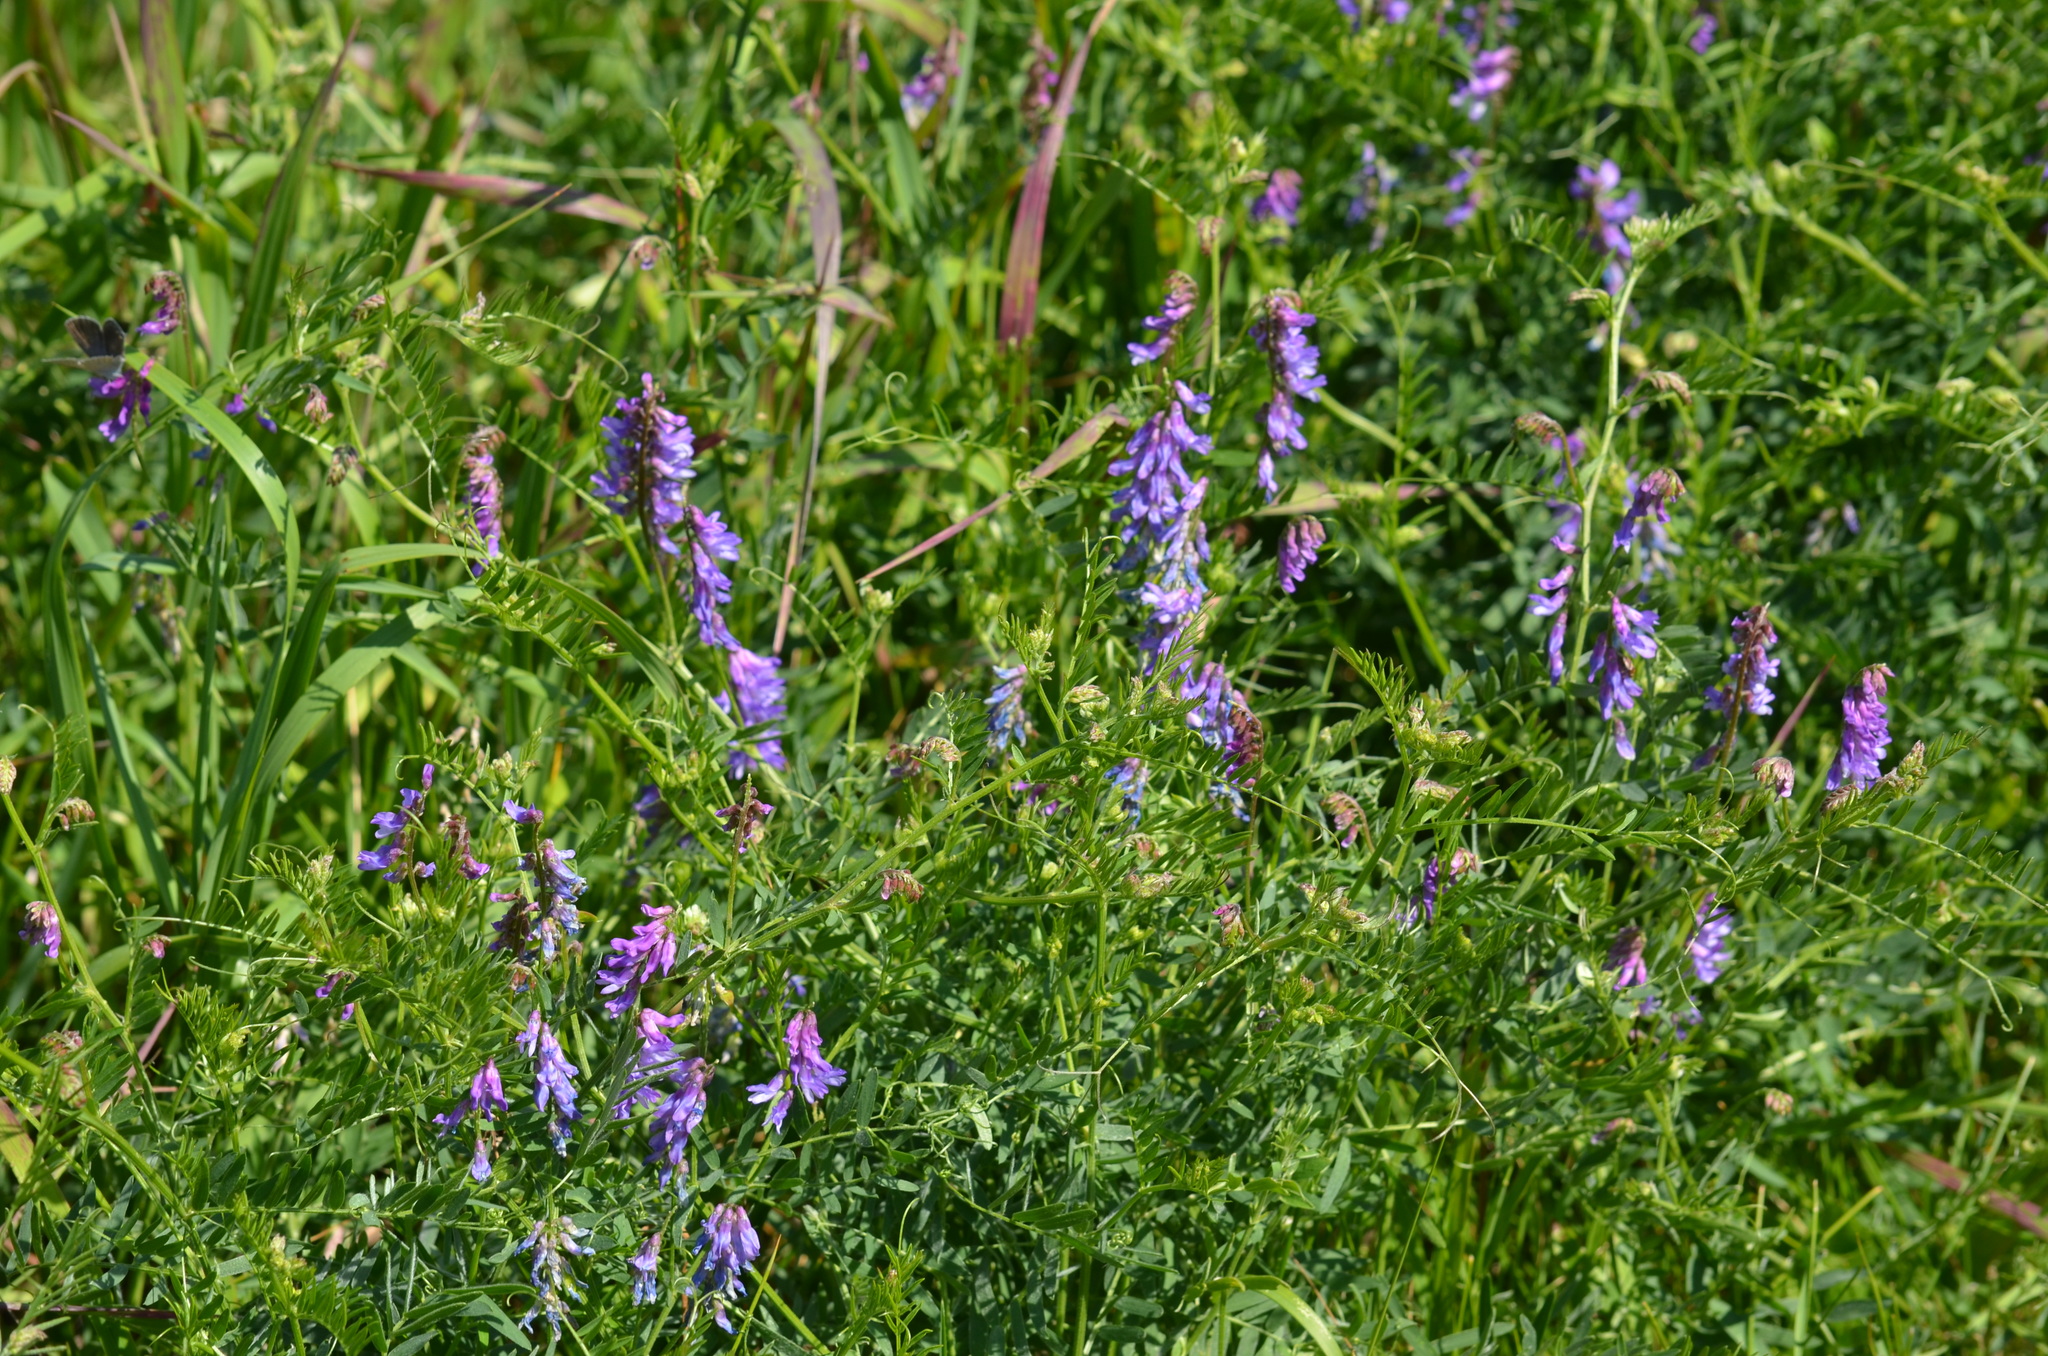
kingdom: Plantae
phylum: Tracheophyta
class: Magnoliopsida
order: Fabales
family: Fabaceae
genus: Vicia
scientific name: Vicia cracca
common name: Bird vetch
